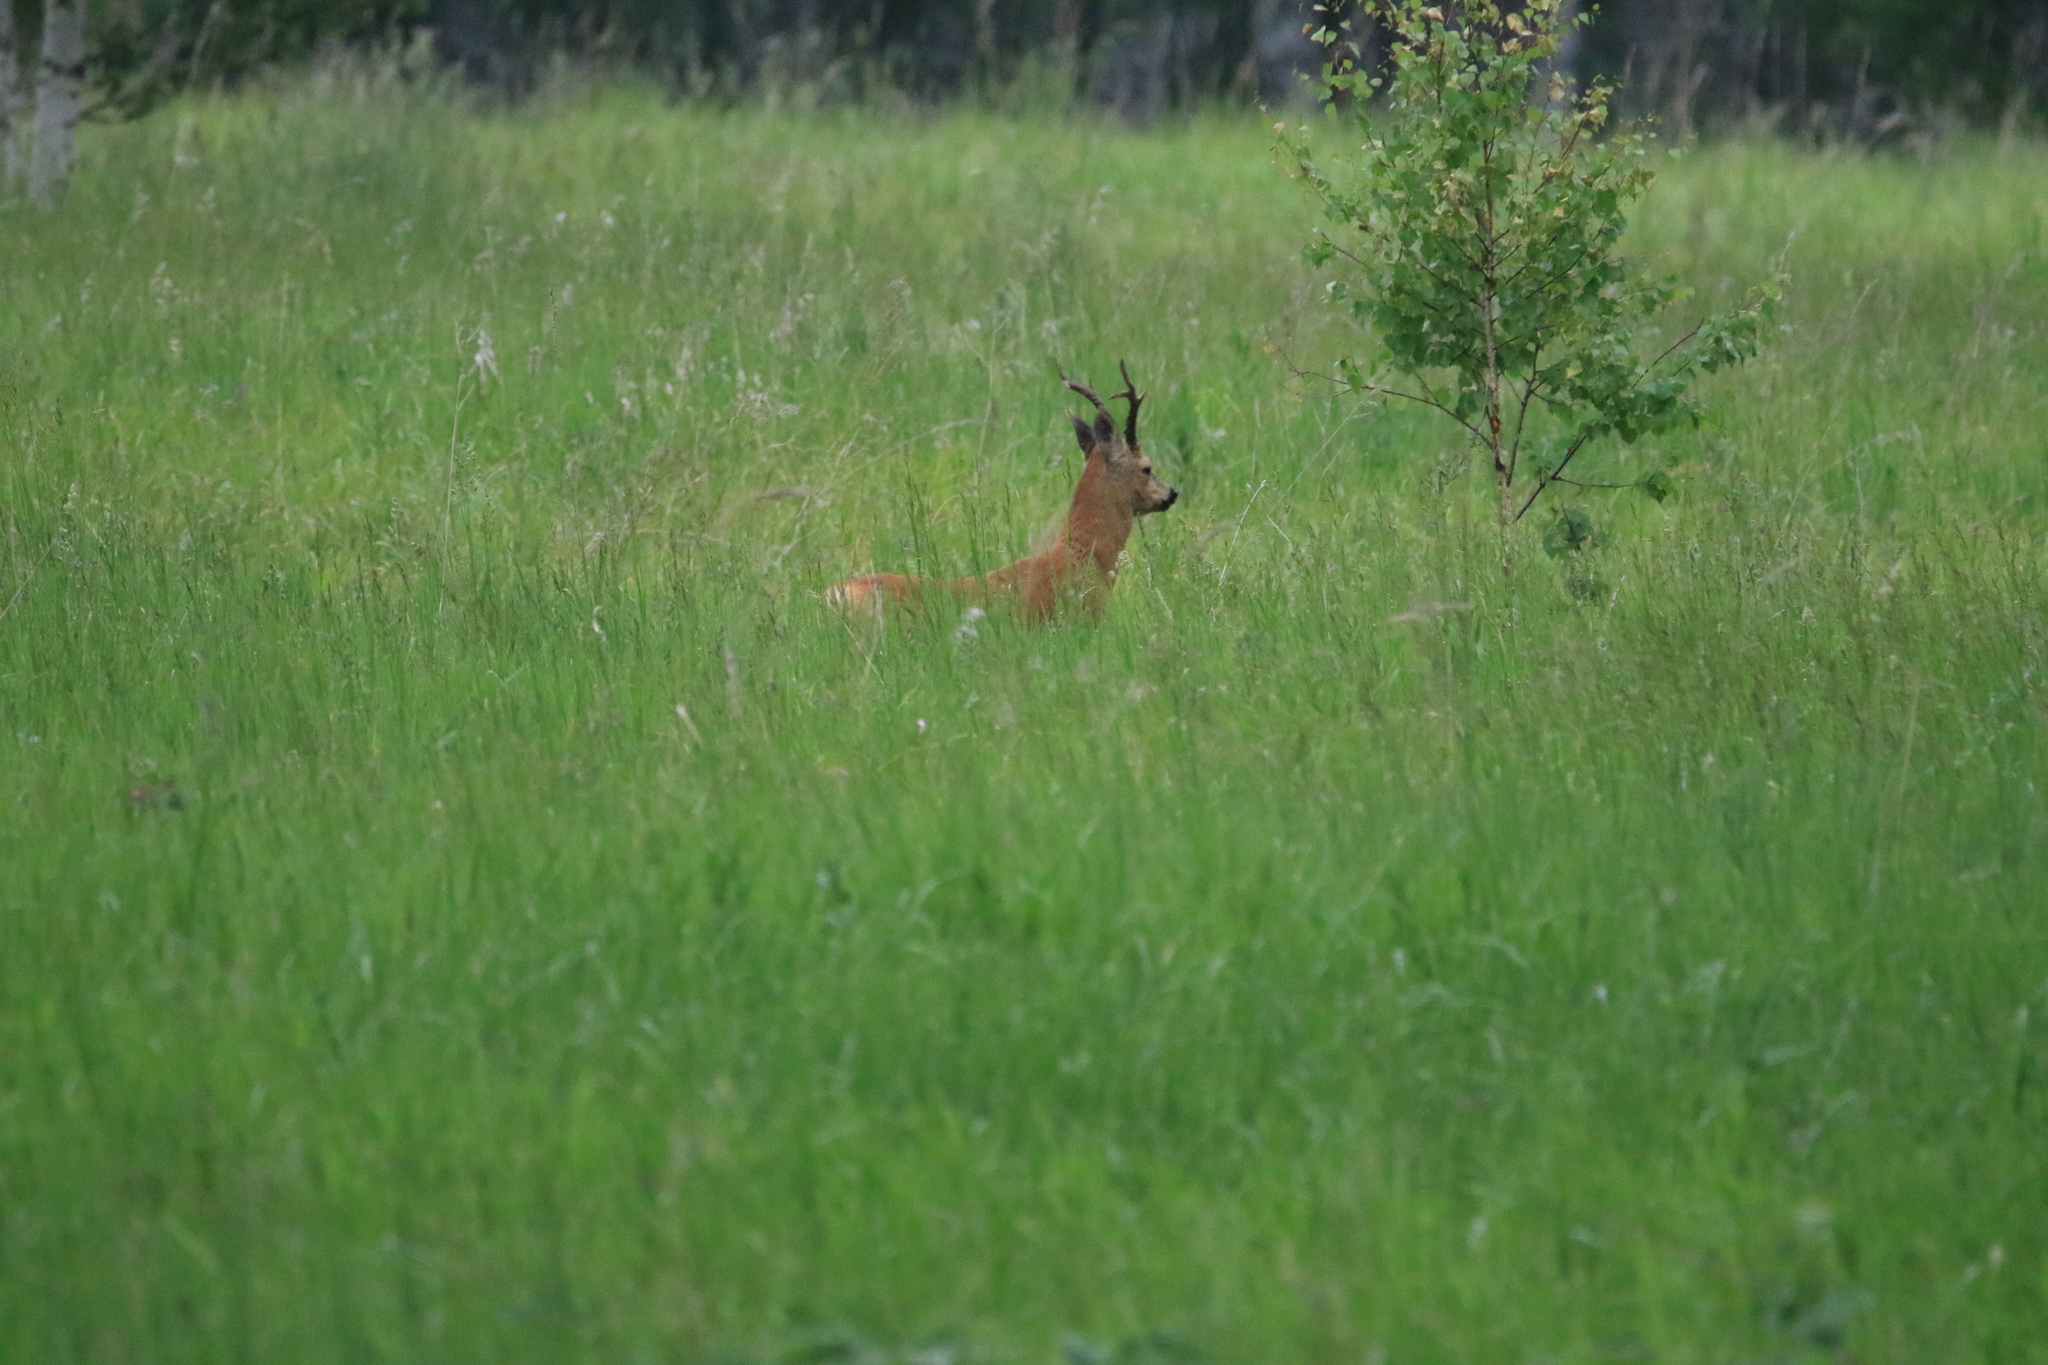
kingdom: Animalia
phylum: Chordata
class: Mammalia
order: Artiodactyla
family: Cervidae
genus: Capreolus
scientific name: Capreolus pygargus
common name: Siberian roe
